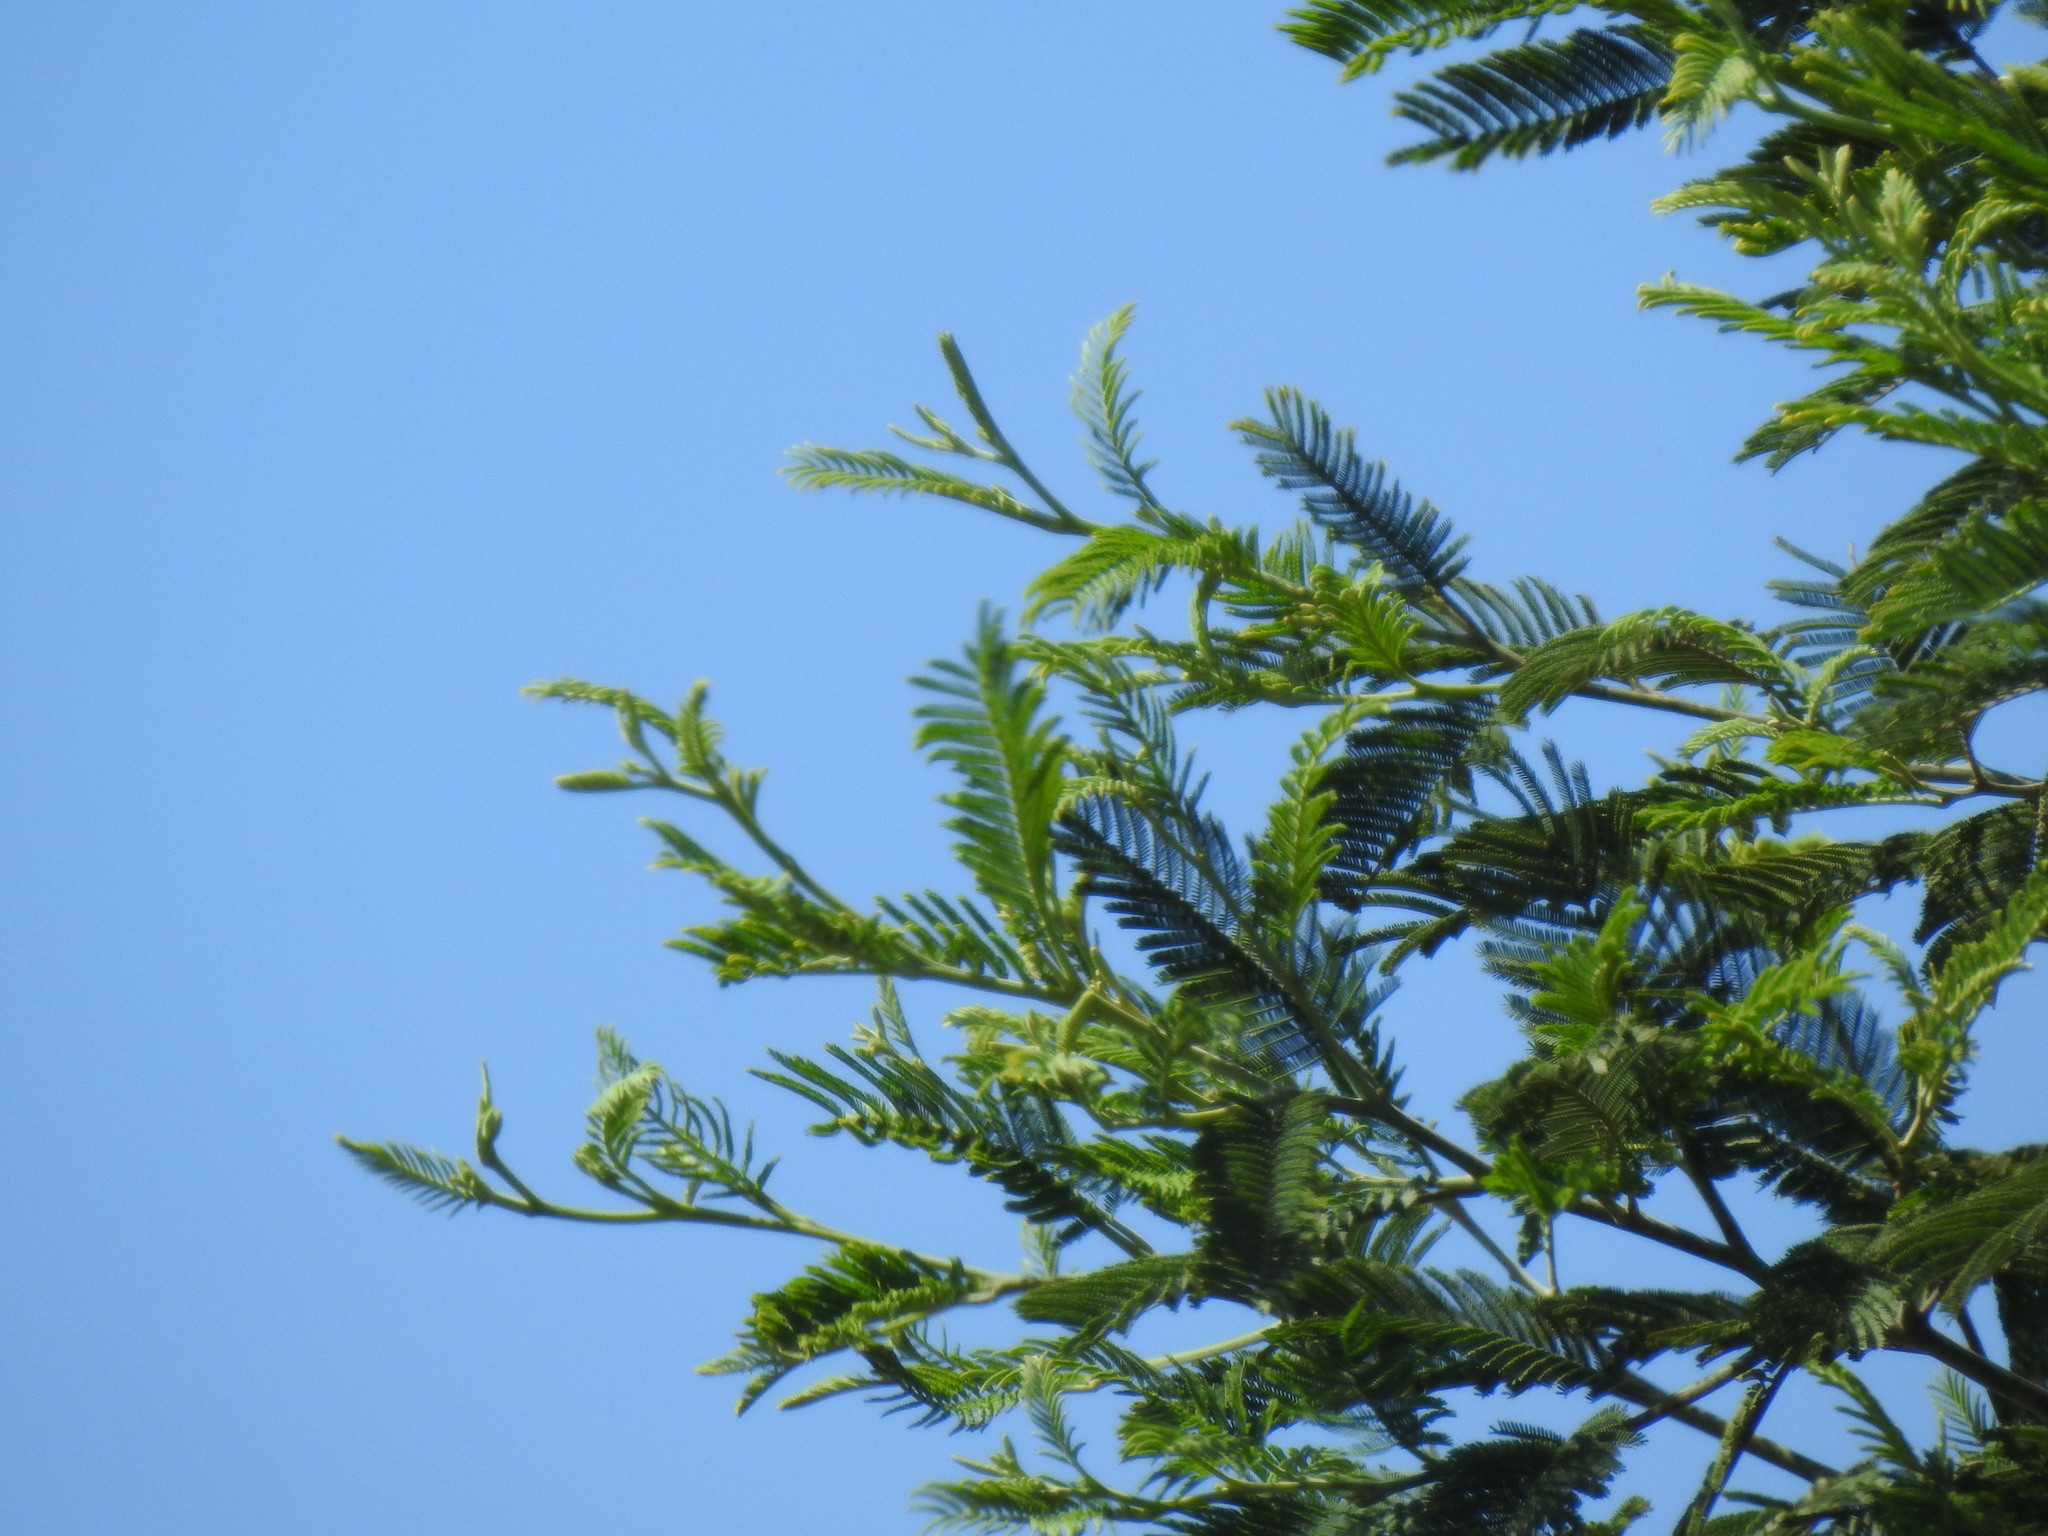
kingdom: Plantae
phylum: Tracheophyta
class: Magnoliopsida
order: Fabales
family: Fabaceae
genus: Acacia
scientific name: Acacia dealbata
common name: Silver wattle
